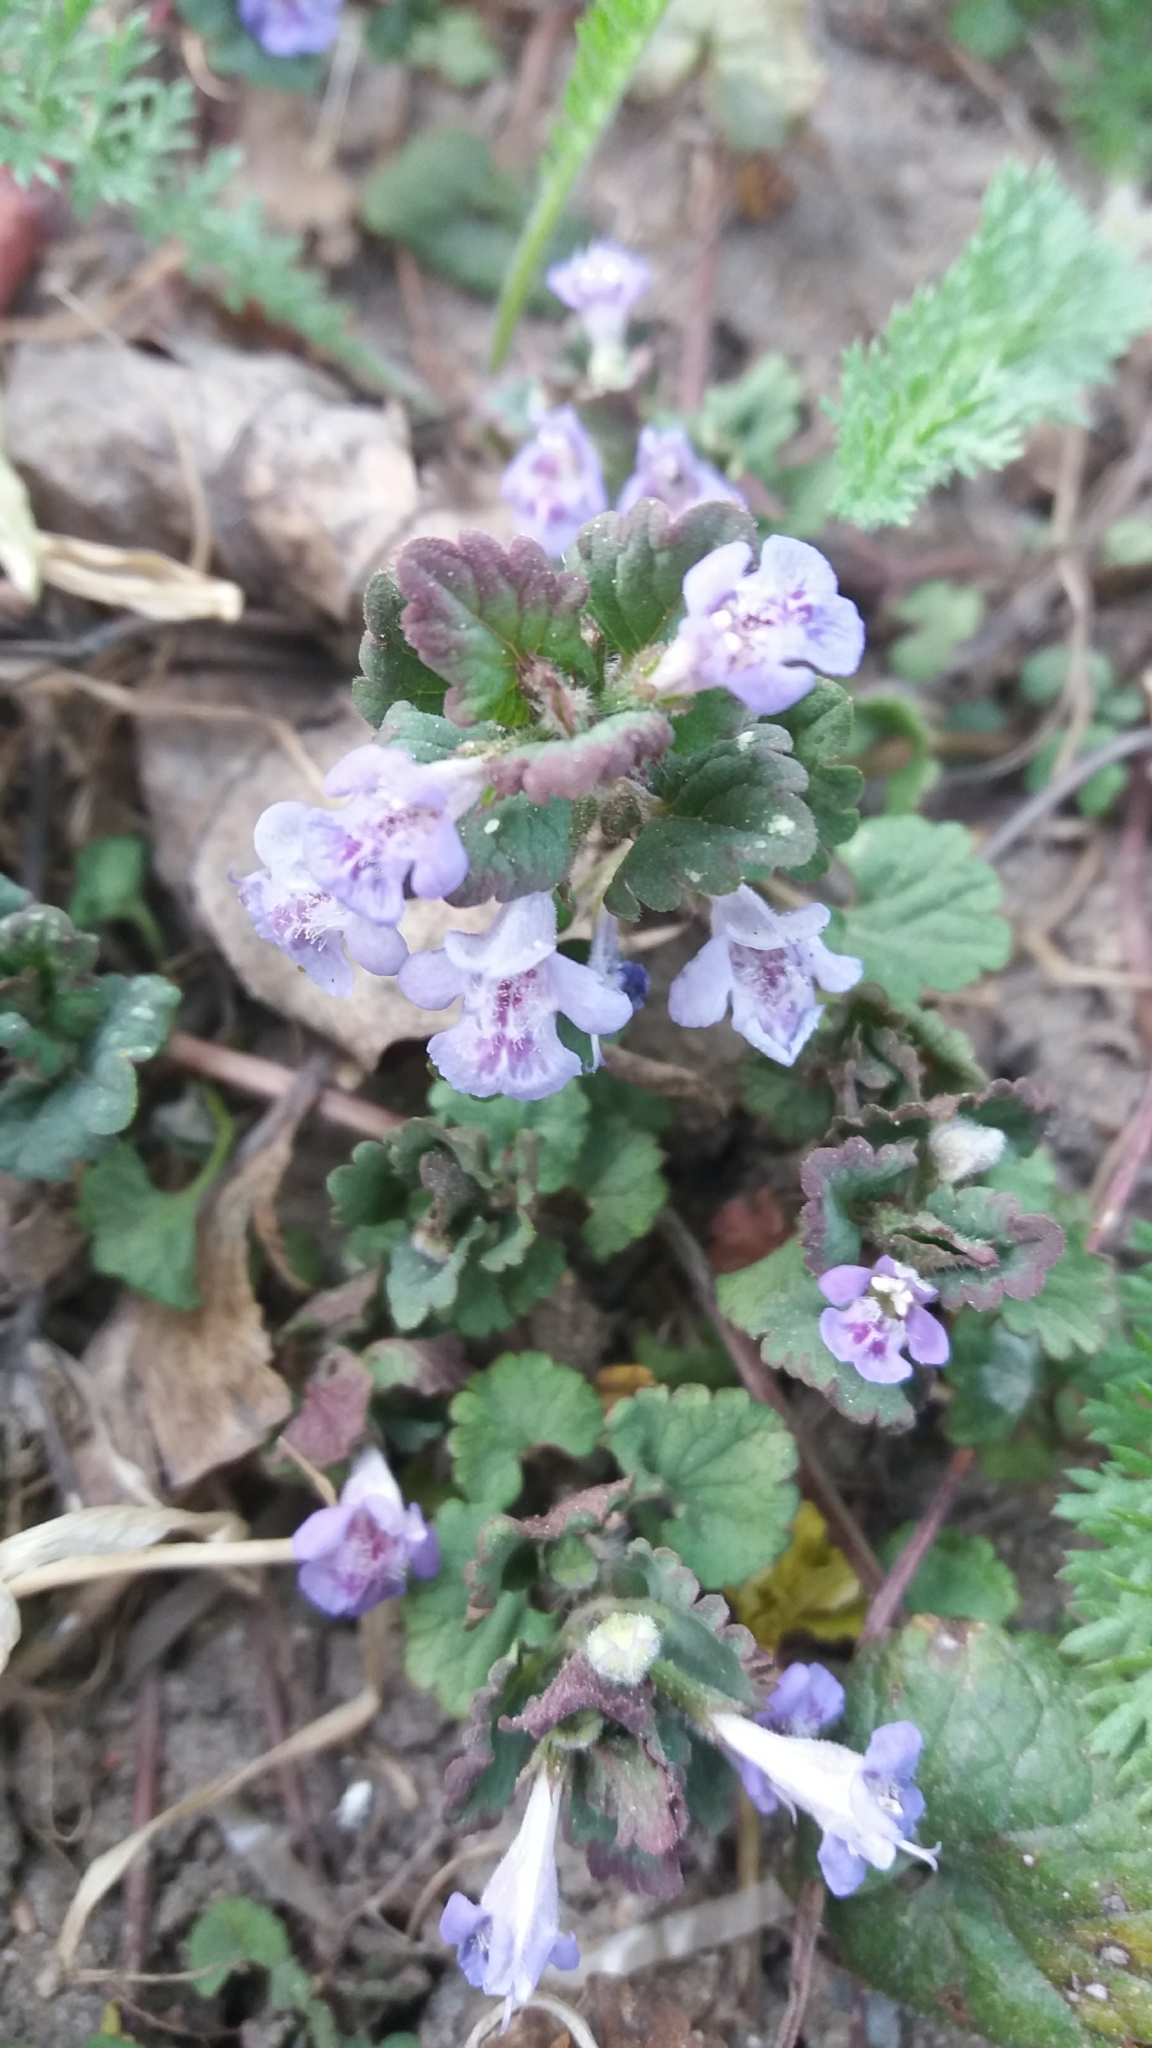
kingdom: Plantae
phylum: Tracheophyta
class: Magnoliopsida
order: Lamiales
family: Lamiaceae
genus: Glechoma
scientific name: Glechoma hederacea
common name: Ground ivy
